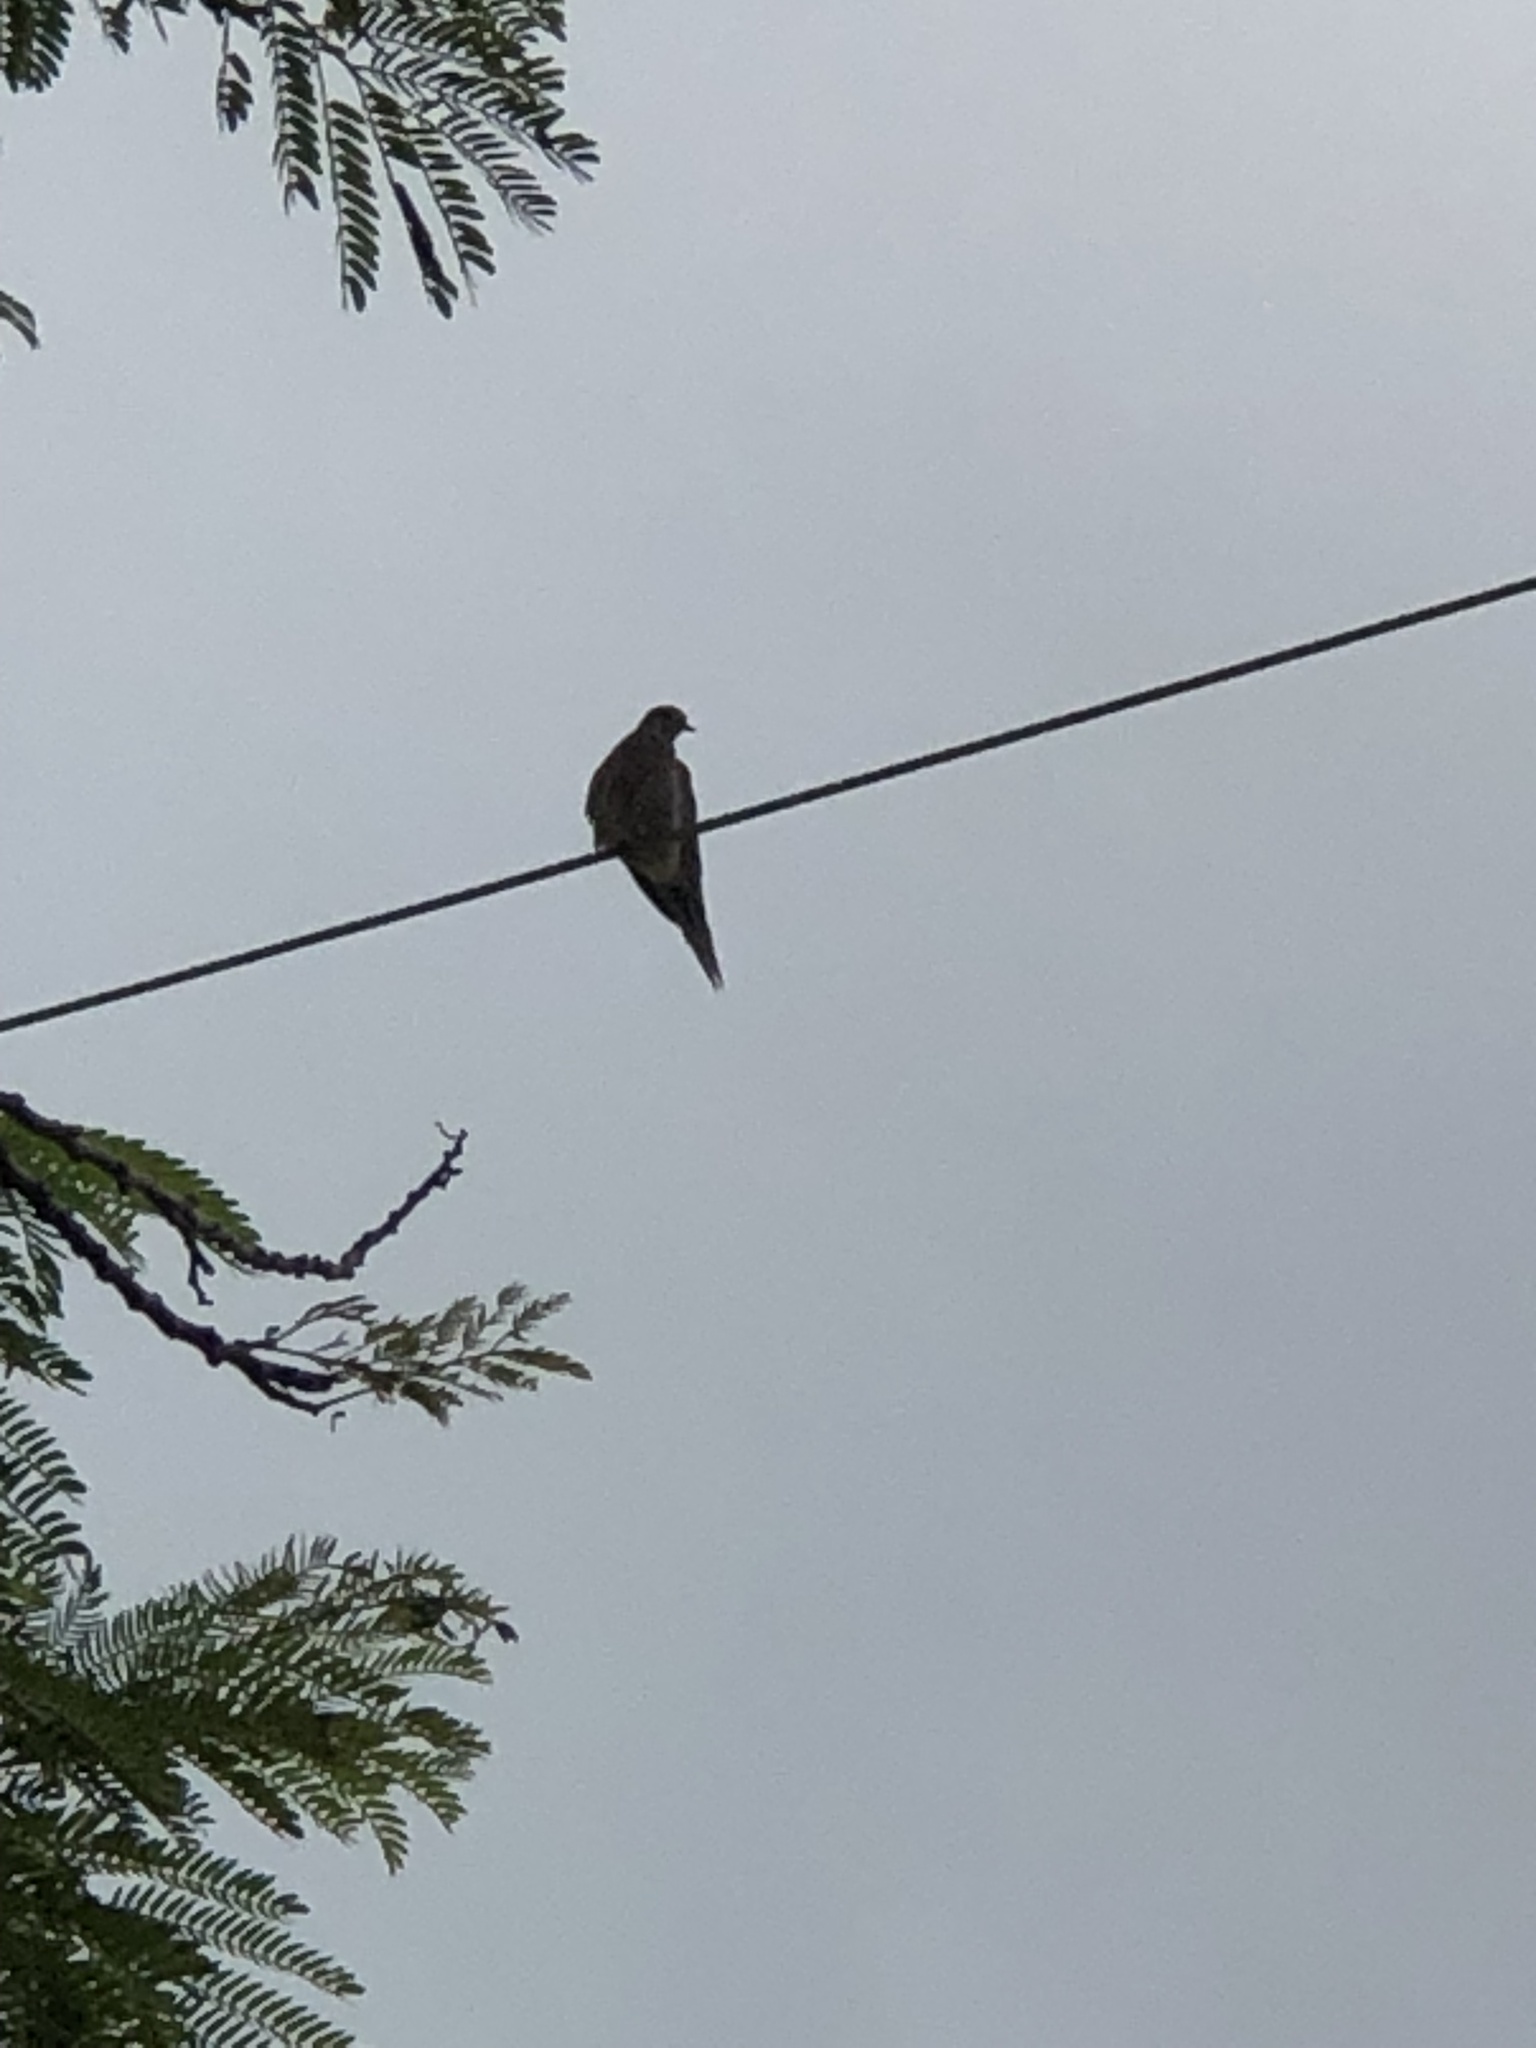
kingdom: Animalia
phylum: Chordata
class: Aves
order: Columbiformes
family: Columbidae
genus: Zenaida
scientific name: Zenaida macroura
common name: Mourning dove
